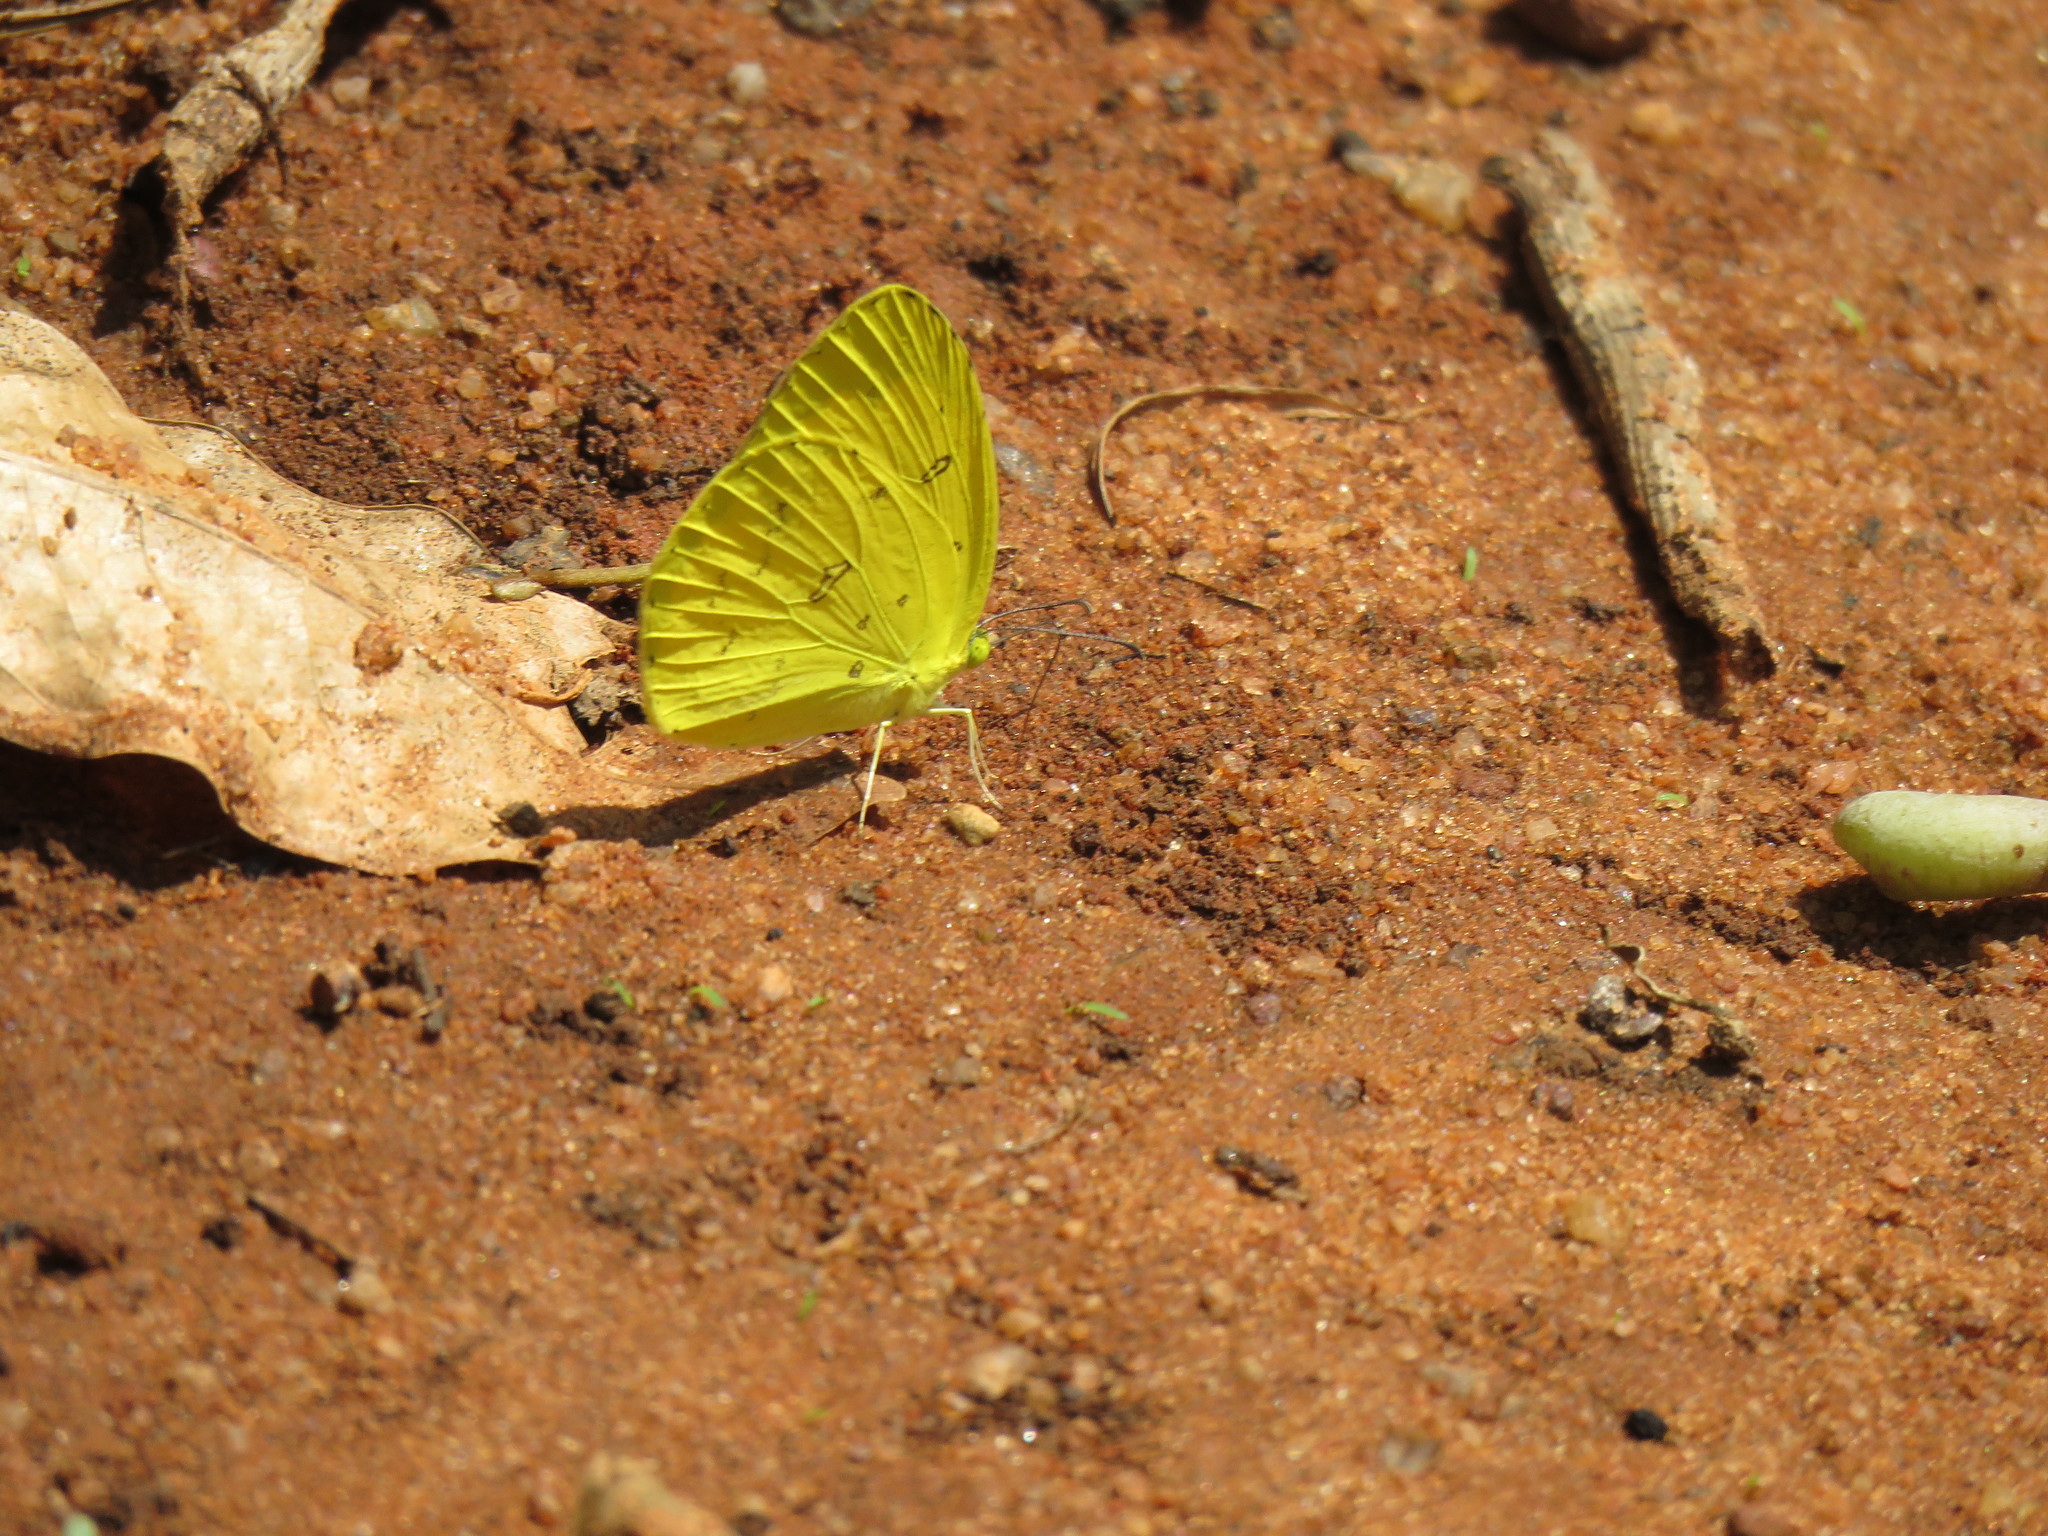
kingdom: Animalia
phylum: Arthropoda
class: Insecta
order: Lepidoptera
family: Pieridae
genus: Eurema
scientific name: Eurema hecabe
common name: Pale grass yellow
